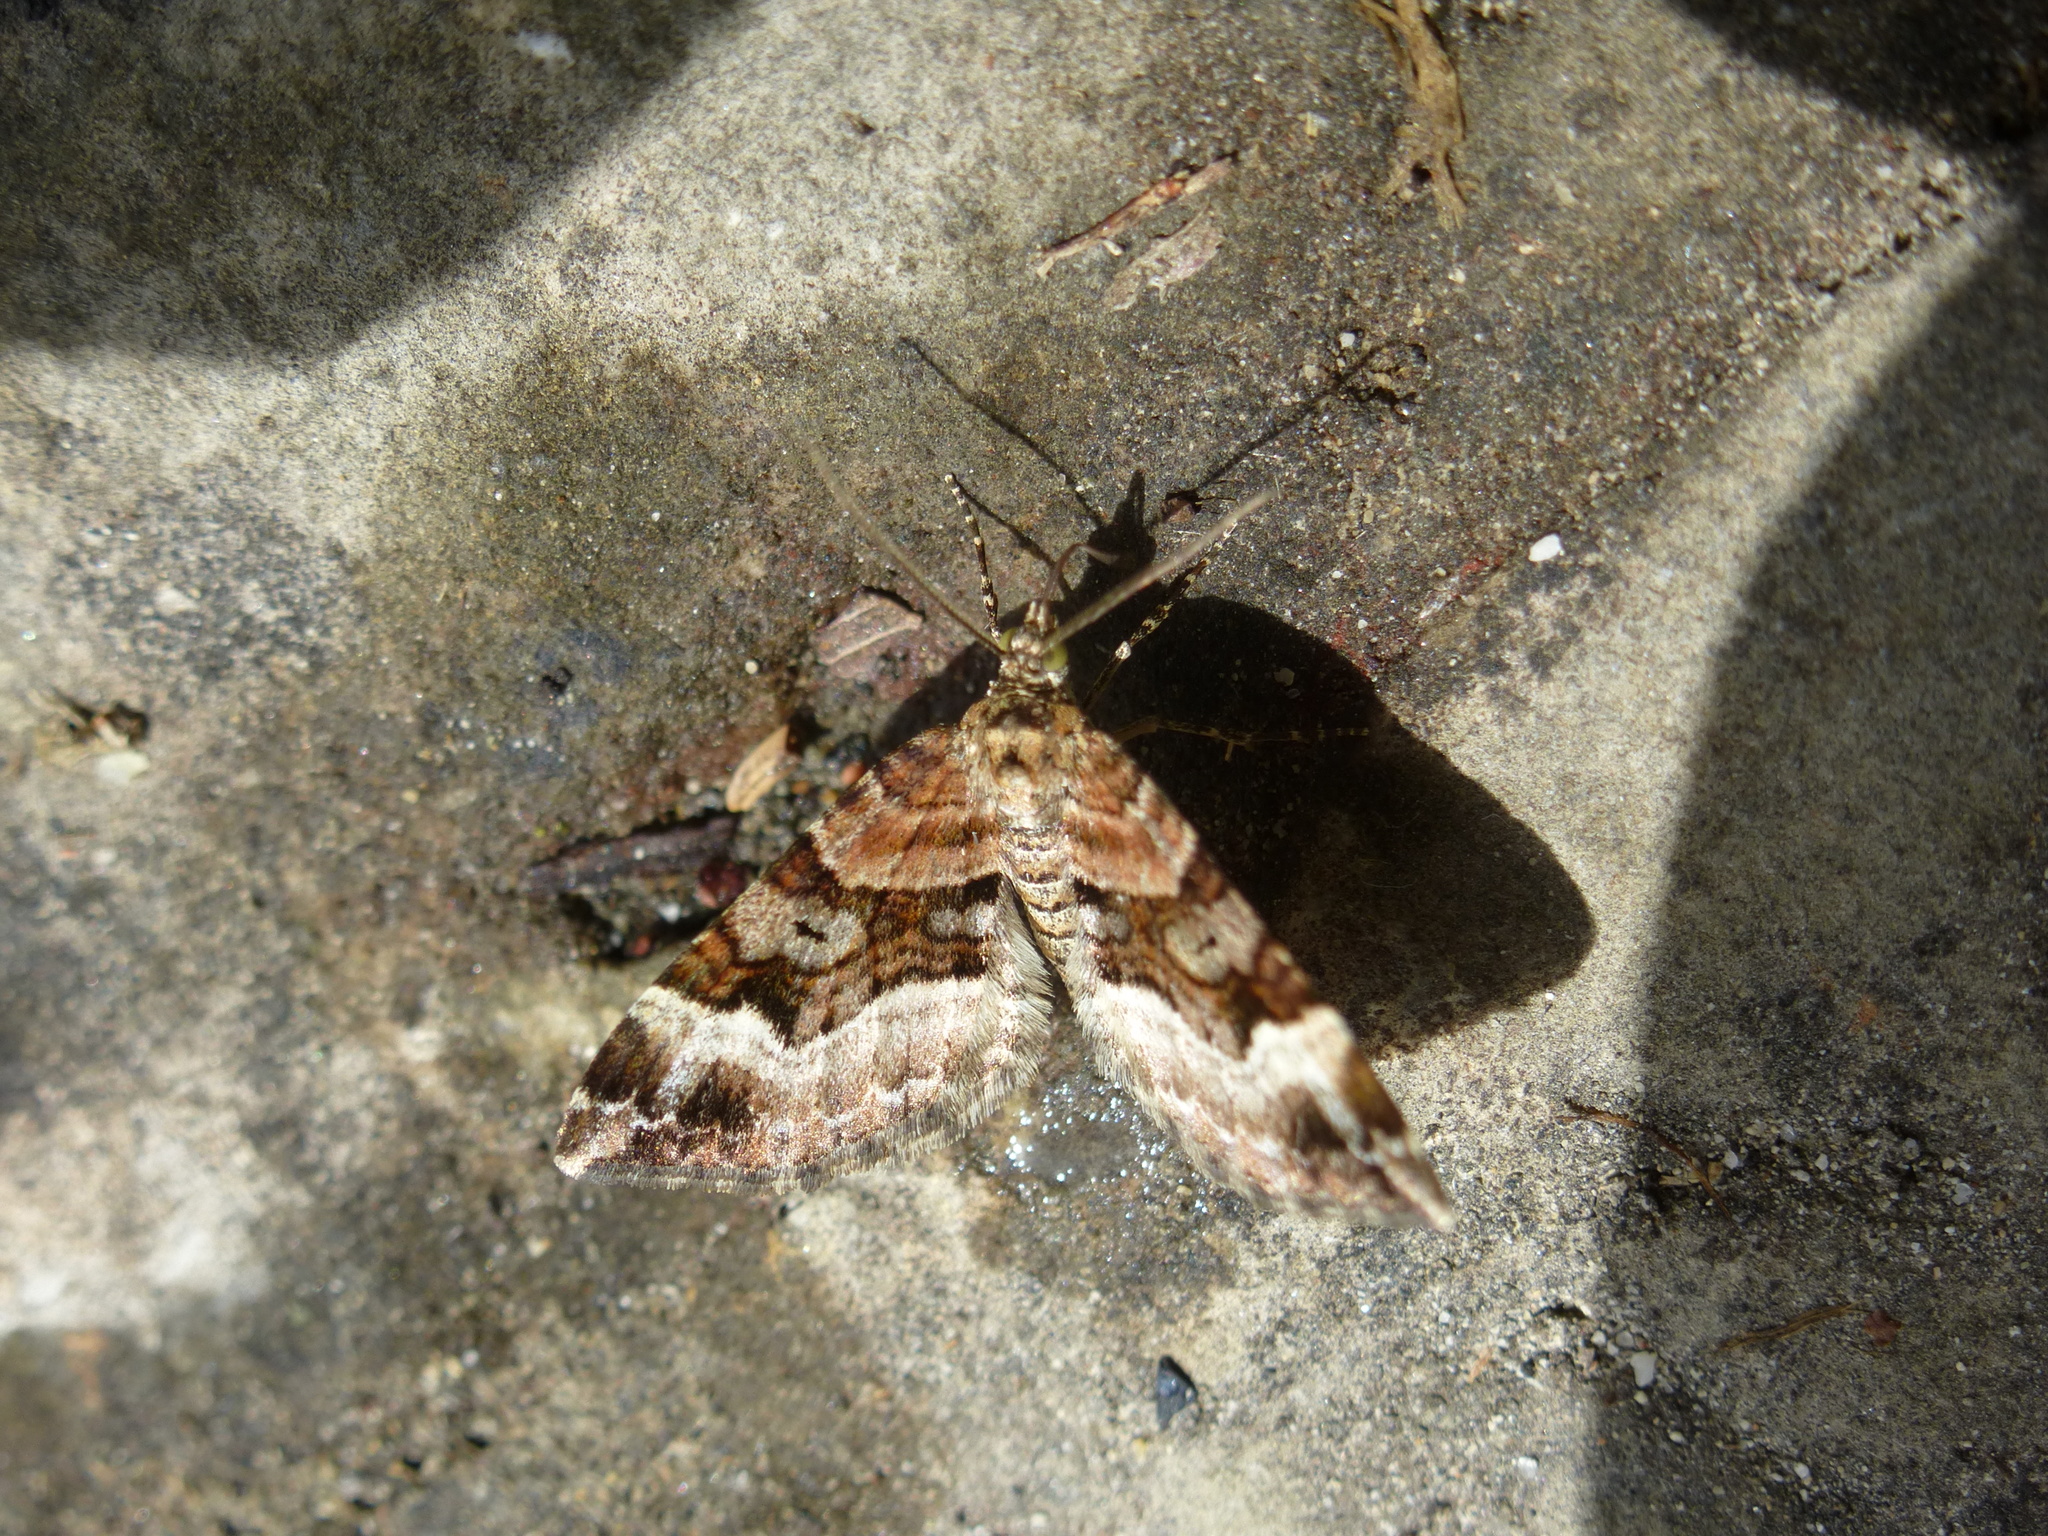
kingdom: Animalia
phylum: Arthropoda
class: Insecta
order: Lepidoptera
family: Geometridae
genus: Epirrhoe
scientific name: Epirrhoe alternata
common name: Common carpet
